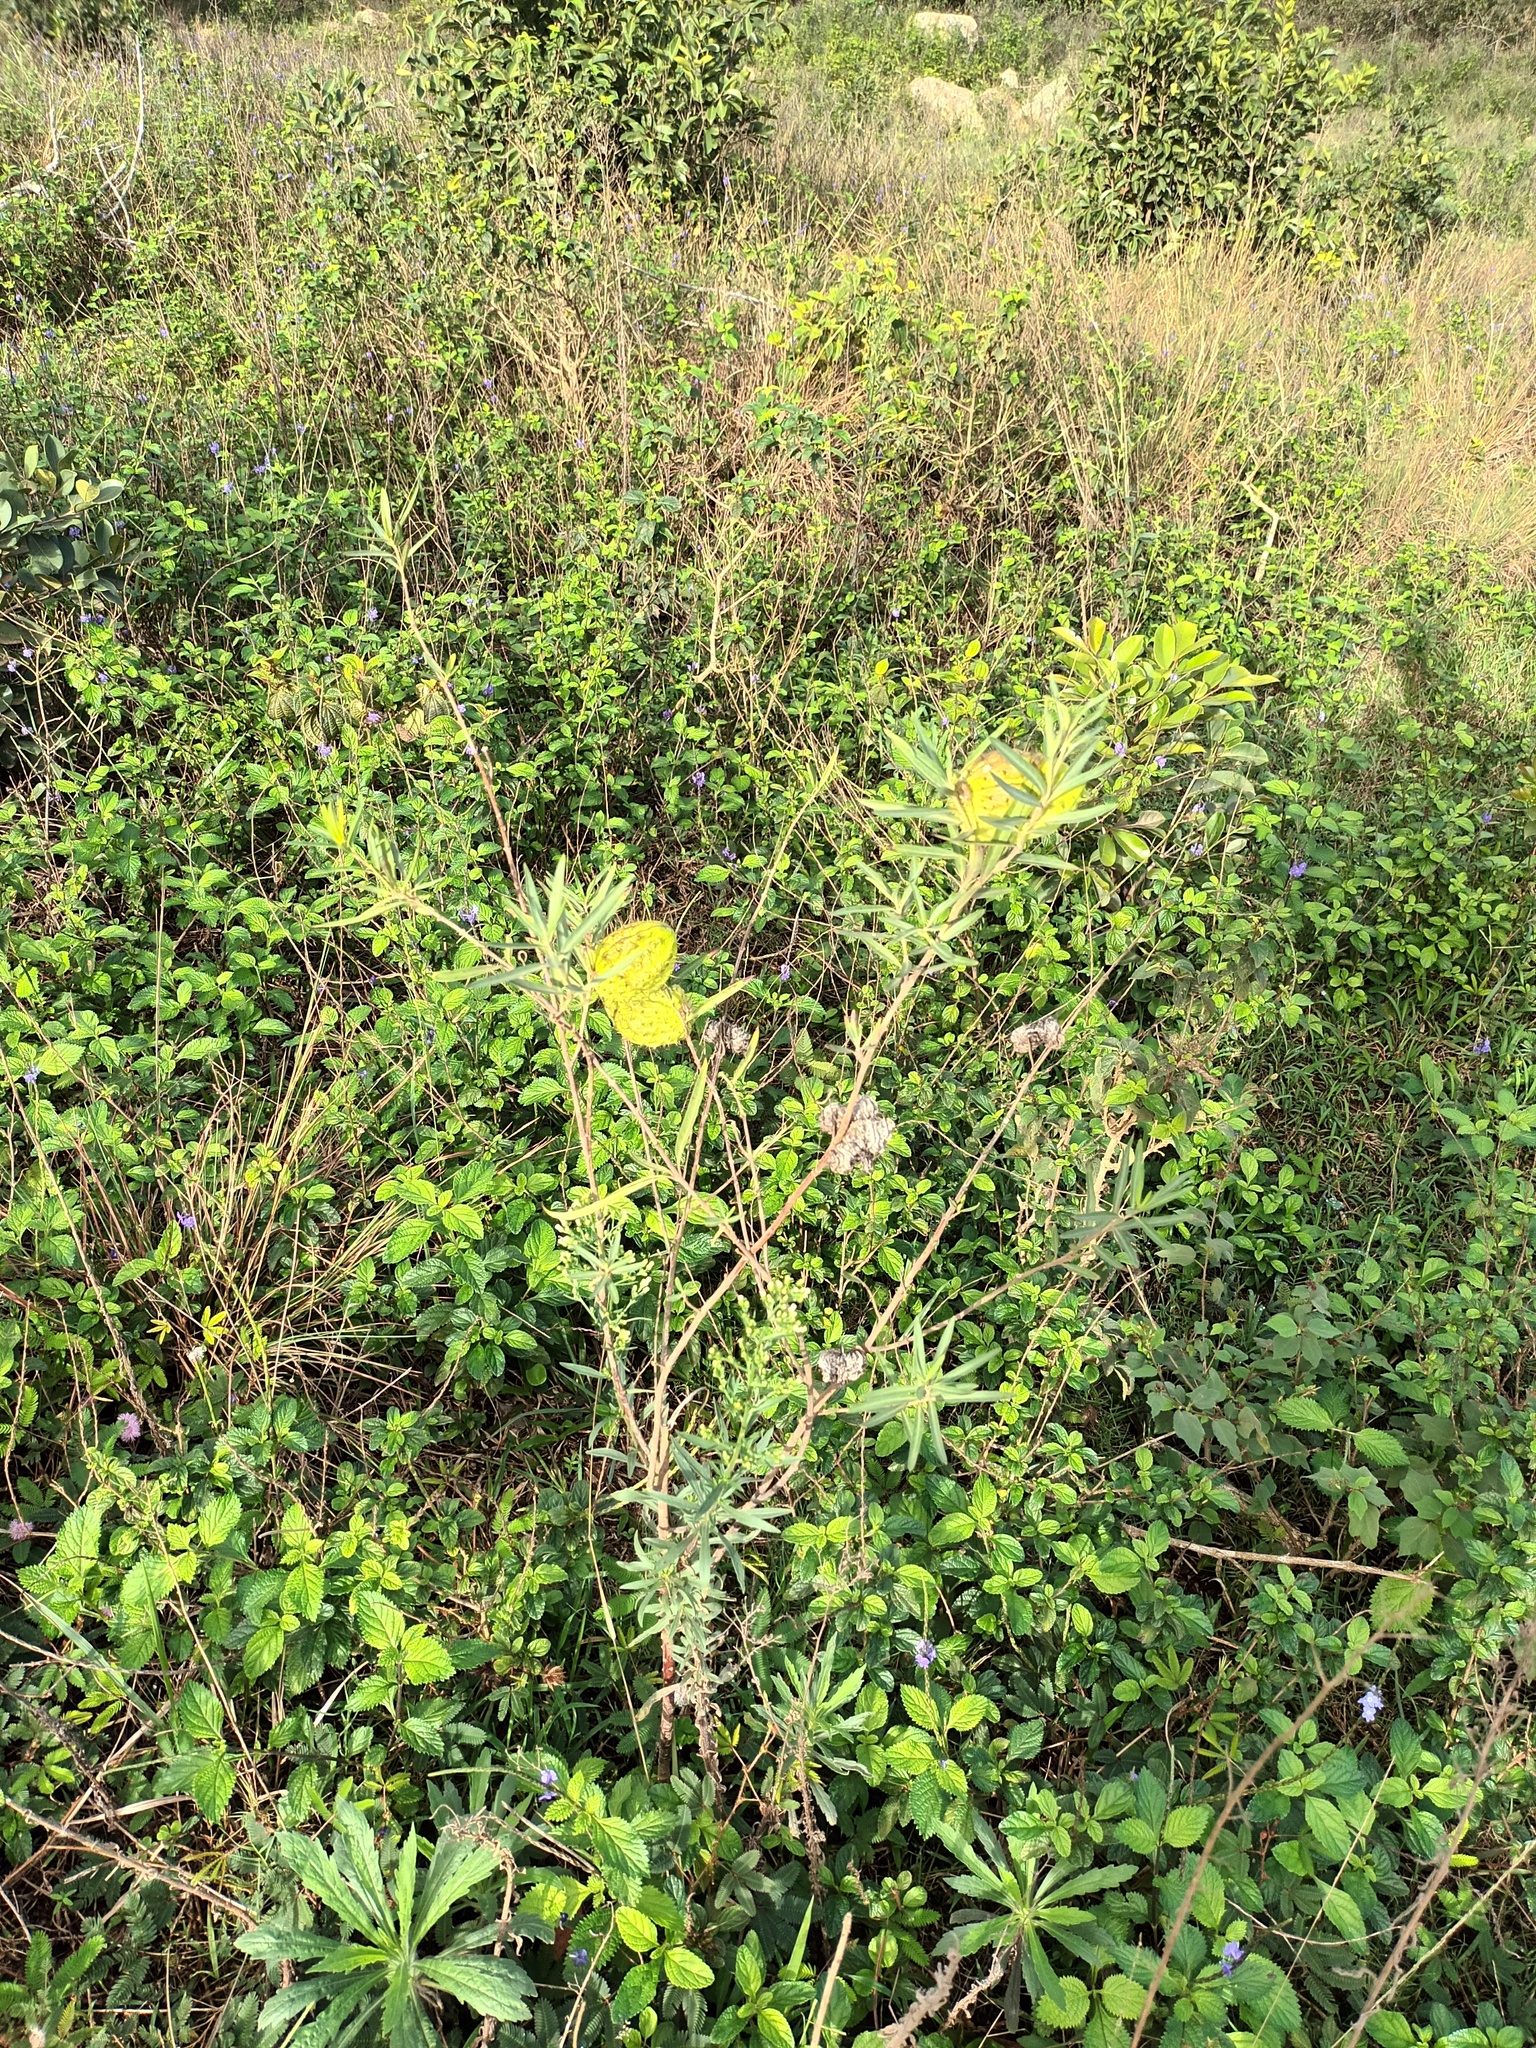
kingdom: Plantae
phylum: Tracheophyta
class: Magnoliopsida
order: Gentianales
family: Apocynaceae
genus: Gomphocarpus
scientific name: Gomphocarpus physocarpus
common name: Balloon cotton bush
